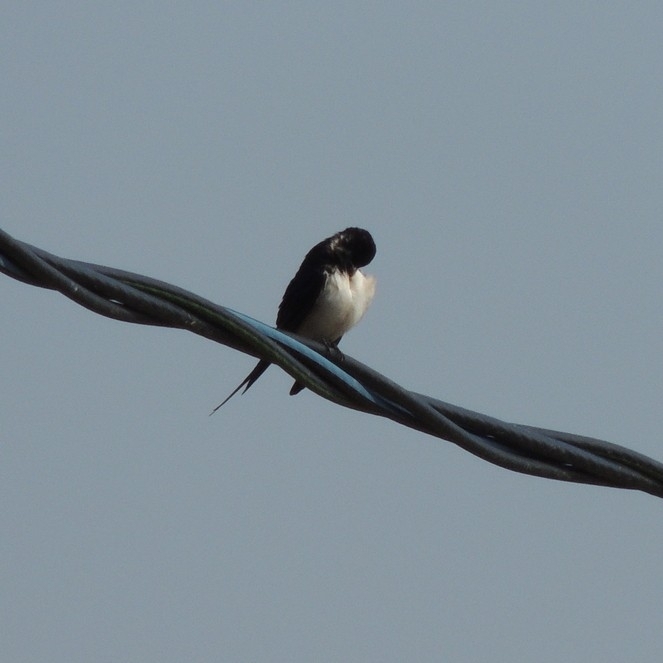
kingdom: Animalia
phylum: Chordata
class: Aves
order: Passeriformes
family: Hirundinidae
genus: Hirundo
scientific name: Hirundo rustica
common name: Barn swallow
